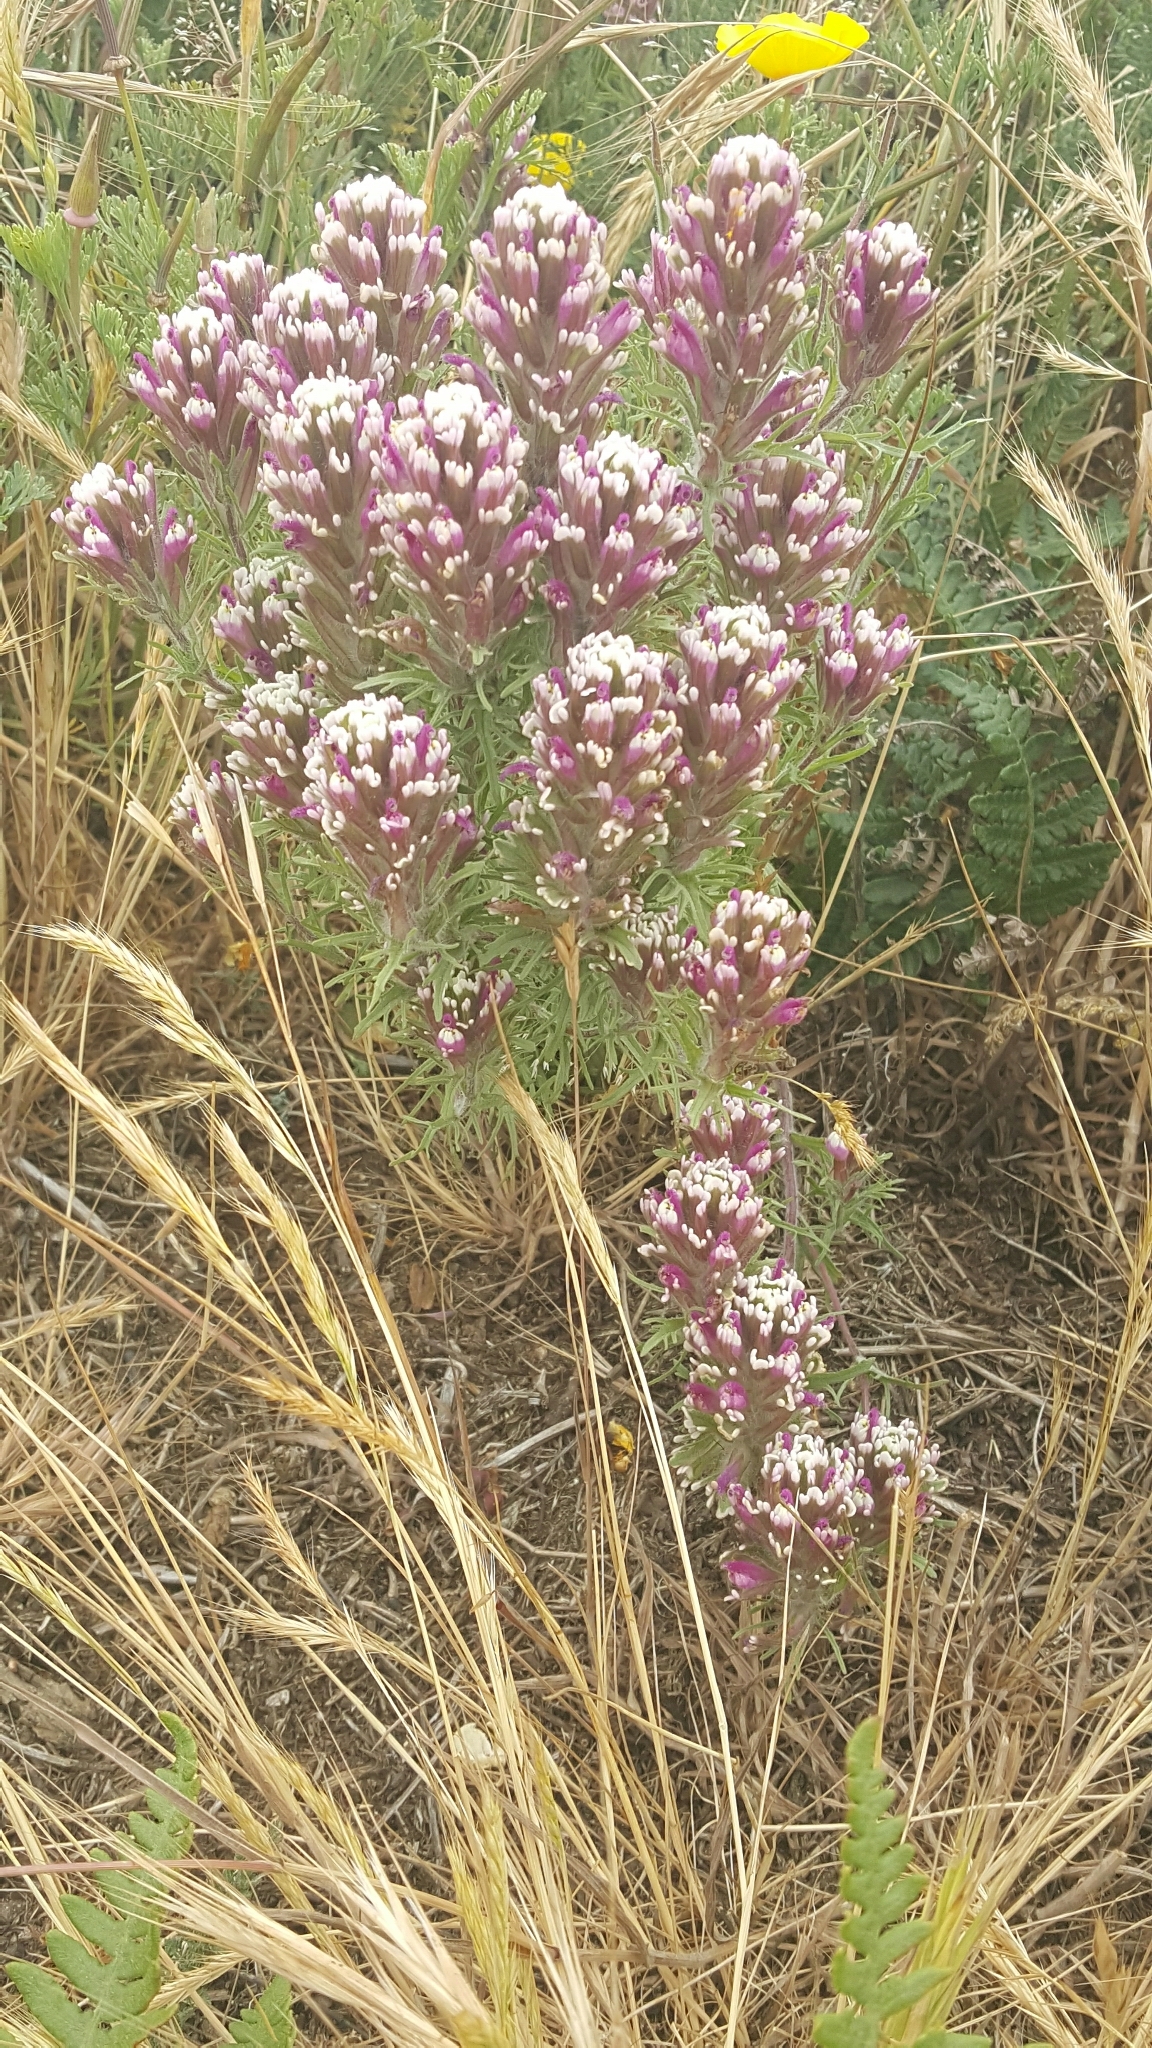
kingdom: Plantae
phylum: Tracheophyta
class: Magnoliopsida
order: Lamiales
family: Orobanchaceae
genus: Castilleja
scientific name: Castilleja exserta
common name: Purple owl-clover
